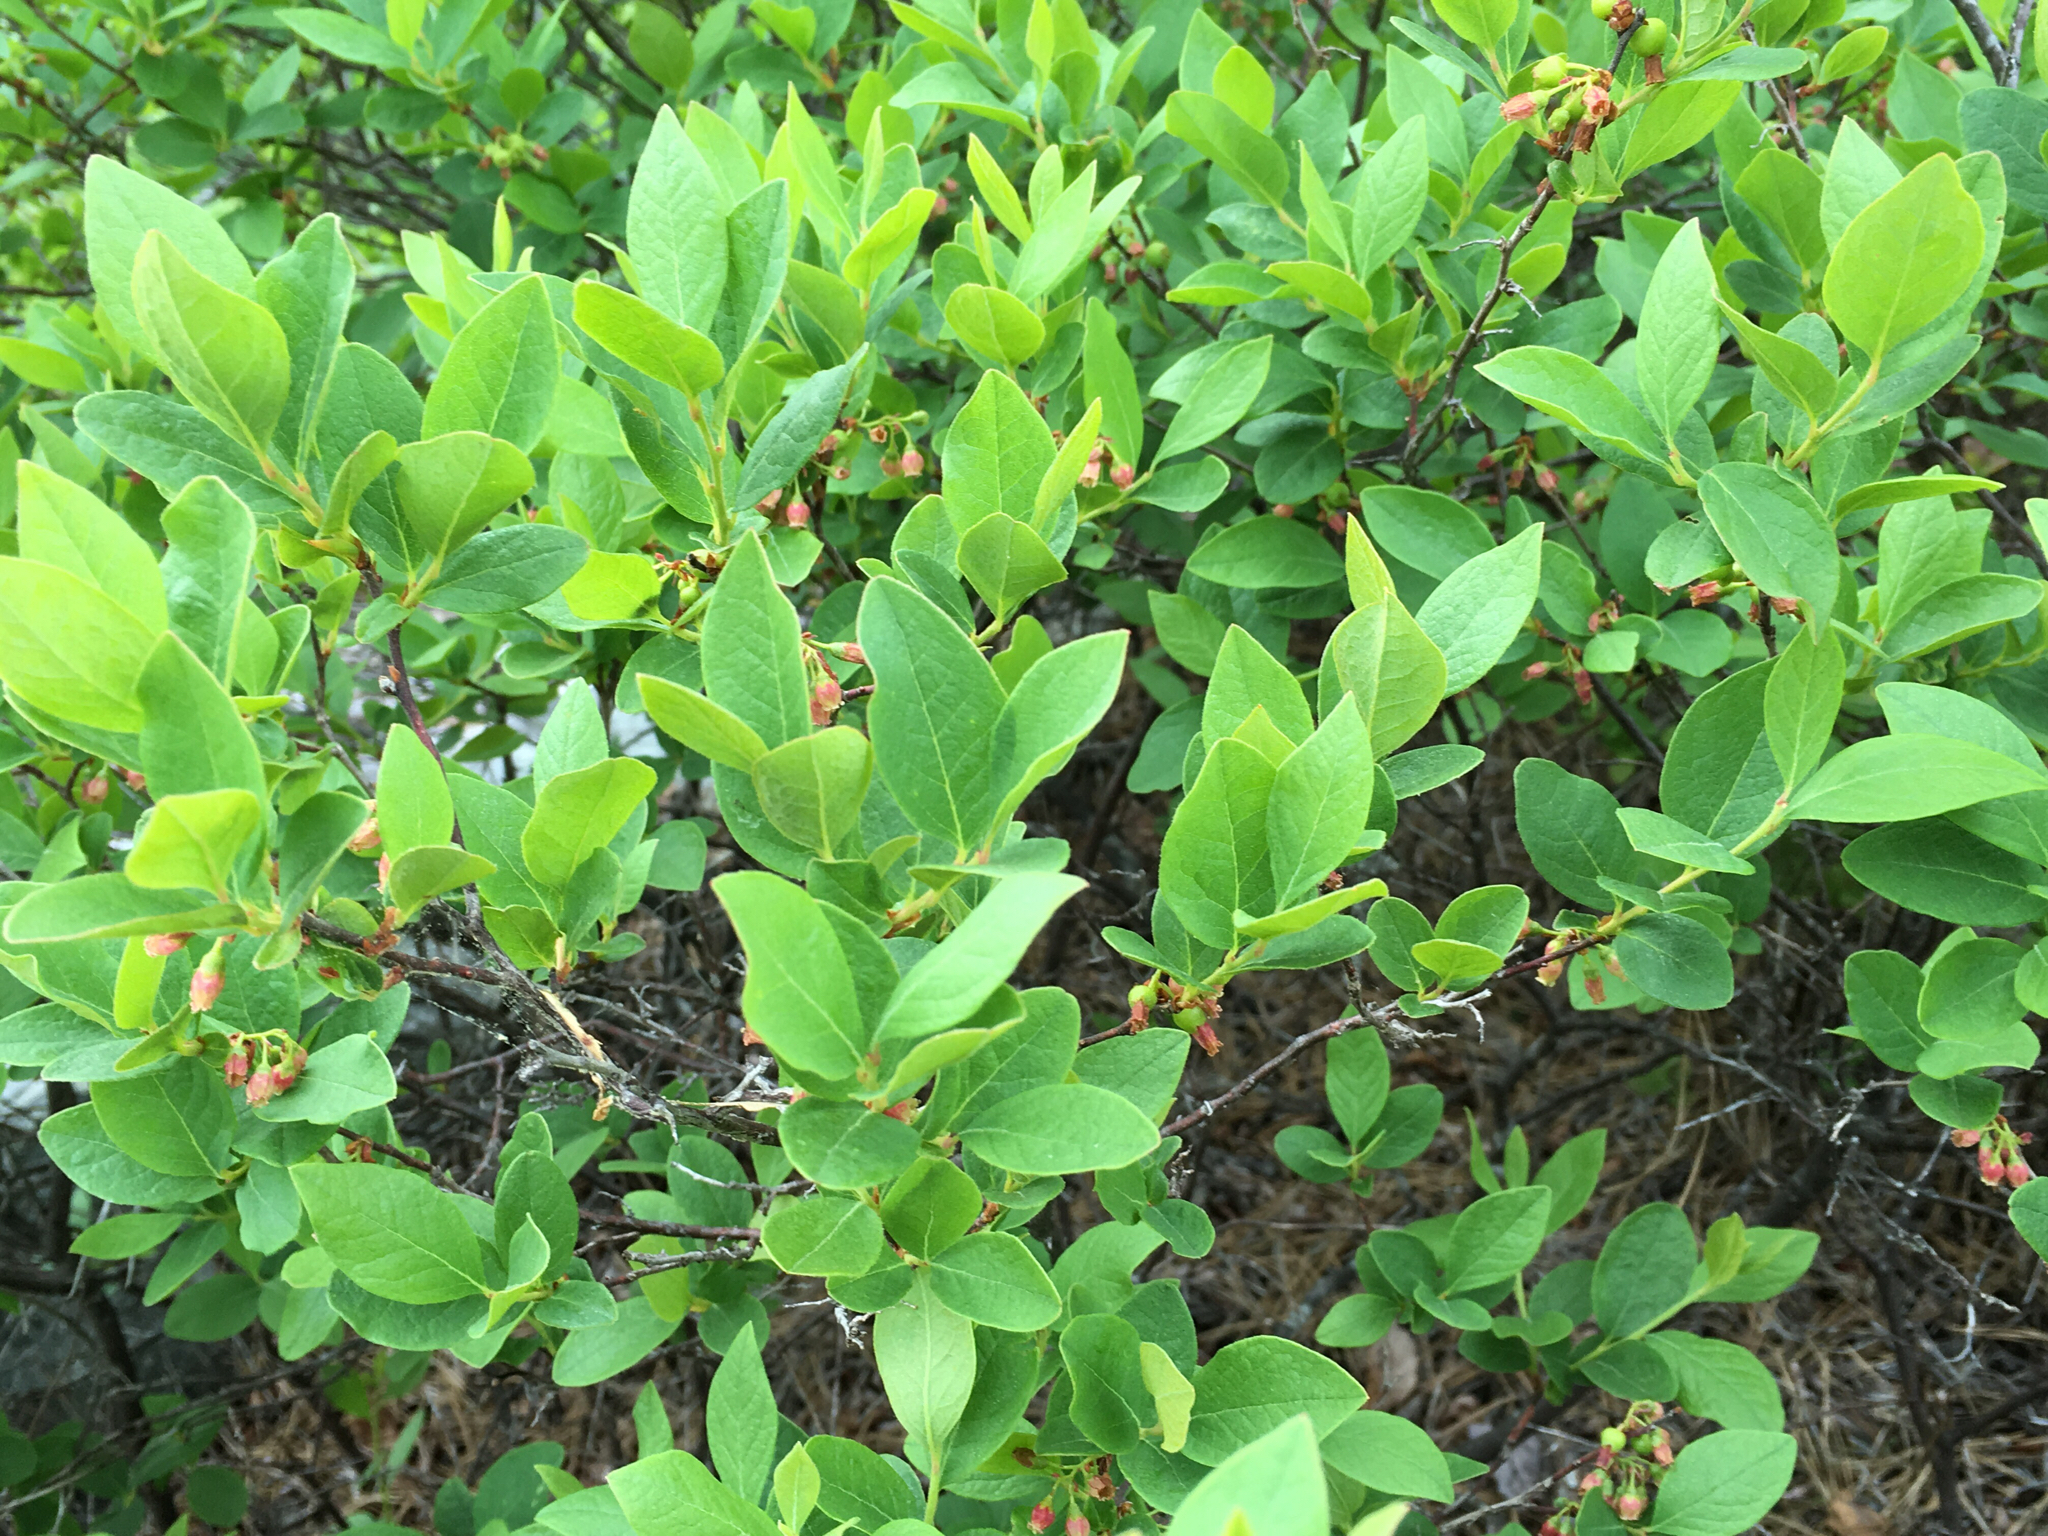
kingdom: Plantae
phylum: Tracheophyta
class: Magnoliopsida
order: Ericales
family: Ericaceae
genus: Gaylussacia
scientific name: Gaylussacia baccata
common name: Black huckleberry
